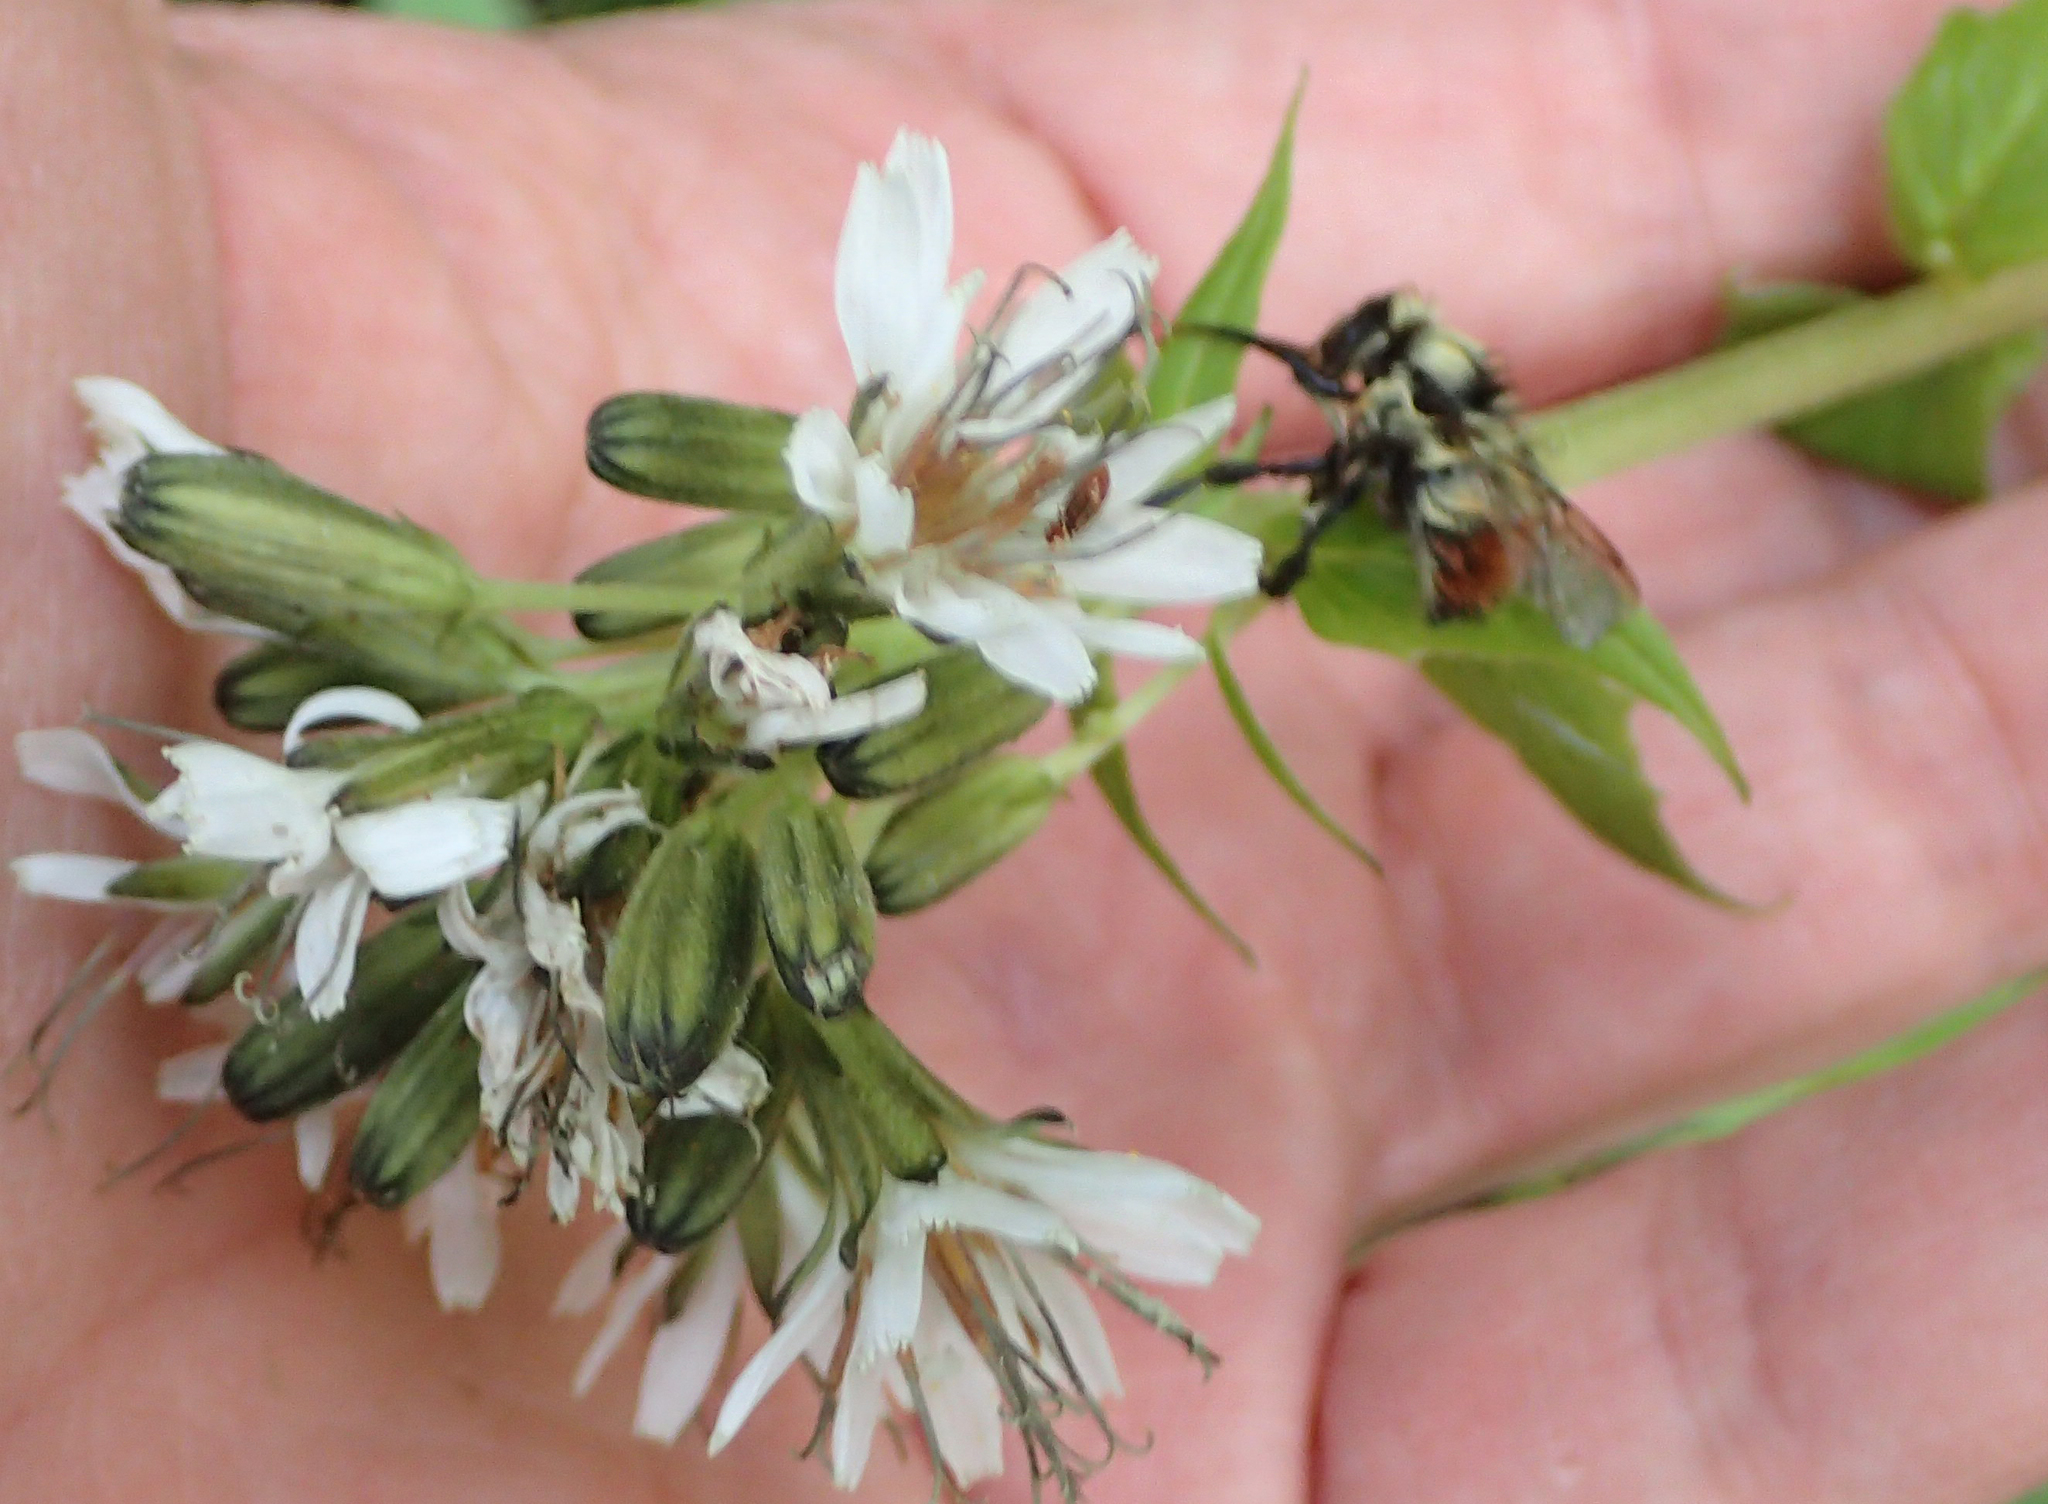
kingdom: Plantae
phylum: Tracheophyta
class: Magnoliopsida
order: Asterales
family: Asteraceae
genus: Nabalus
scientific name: Nabalus hastatus
